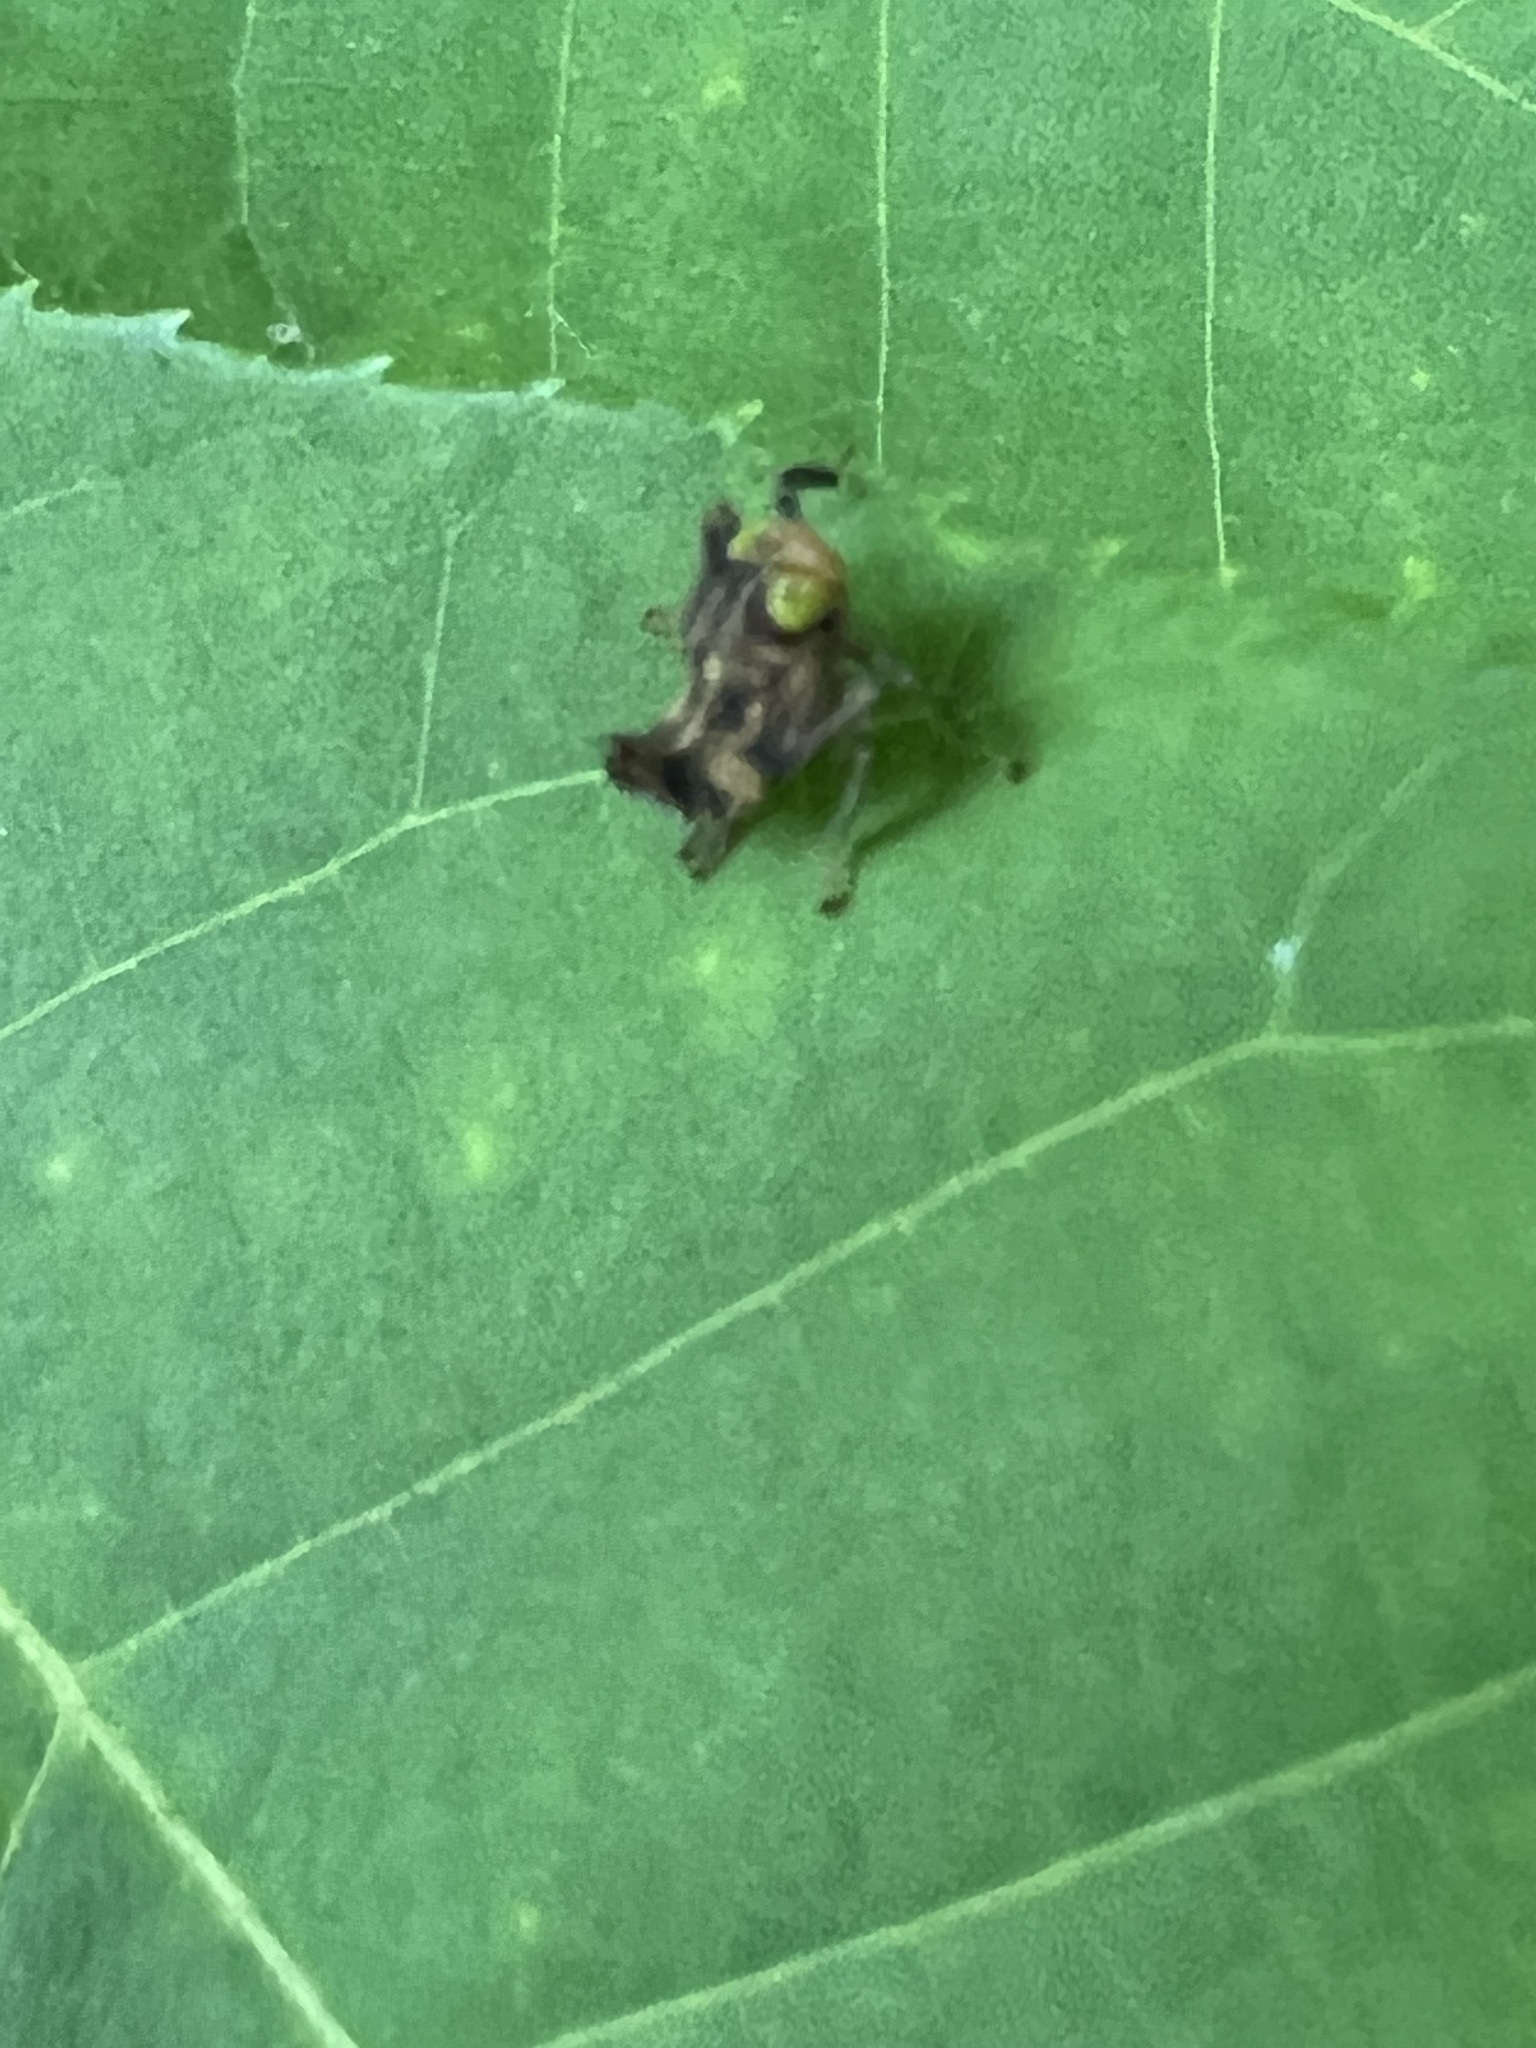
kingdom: Animalia
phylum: Arthropoda
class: Insecta
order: Hemiptera
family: Cicadellidae
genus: Jikradia
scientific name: Jikradia olitoria
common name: Coppery leafhopper
